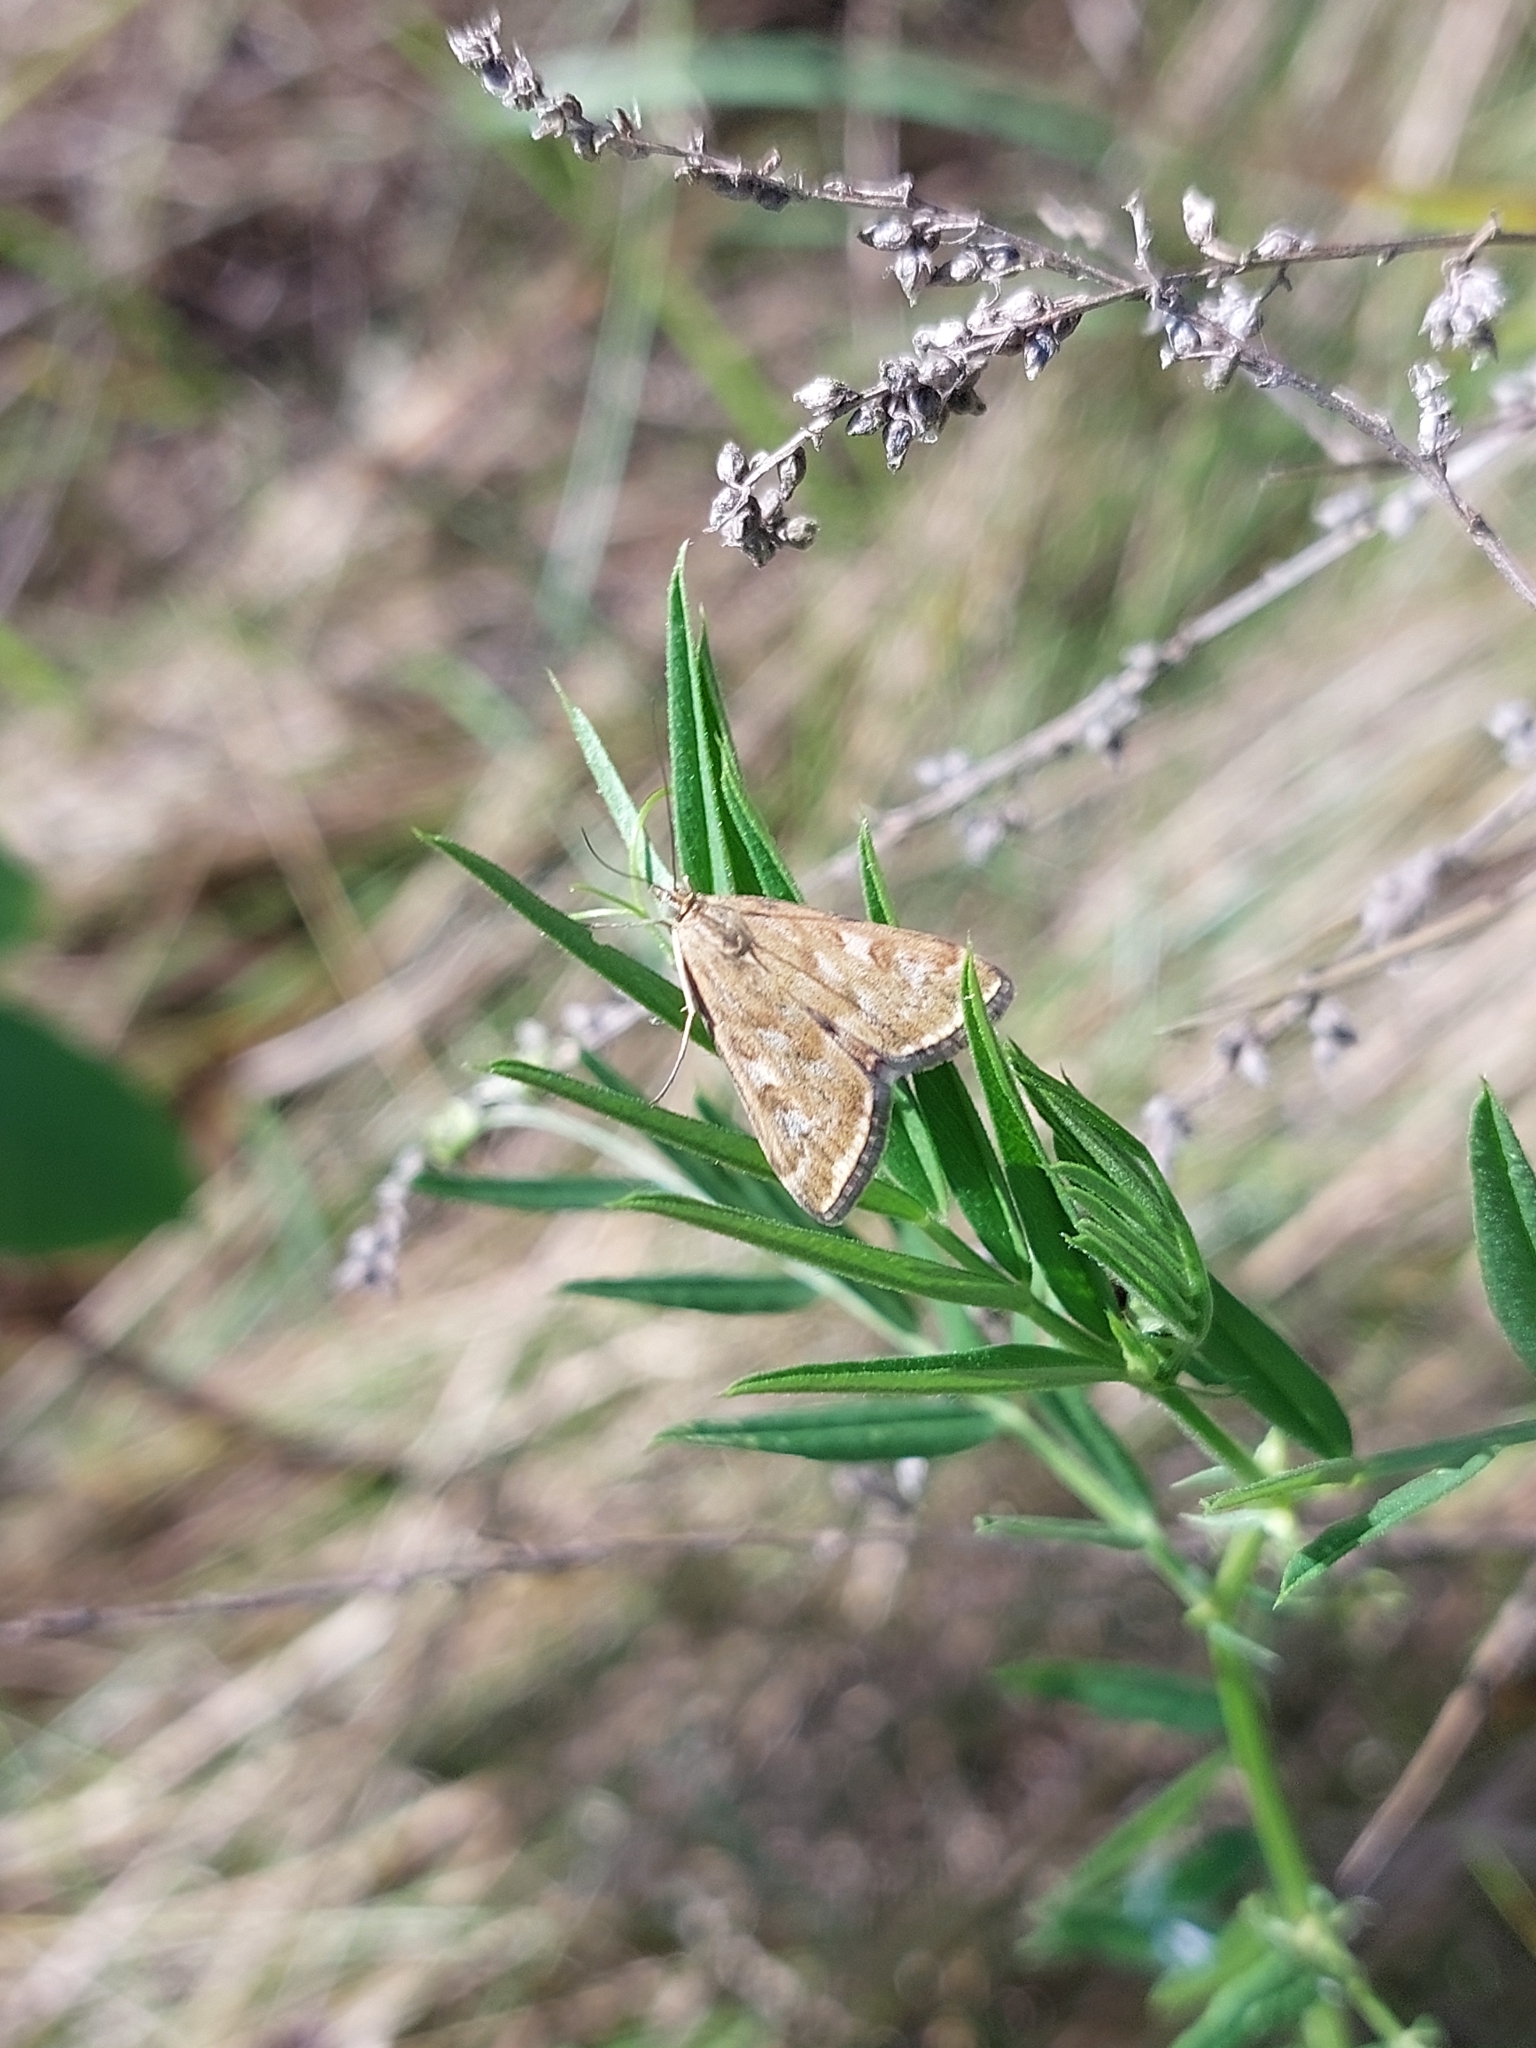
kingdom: Animalia
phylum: Arthropoda
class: Insecta
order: Lepidoptera
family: Crambidae
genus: Loxostege
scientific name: Loxostege sticticalis
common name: Crambid moth
